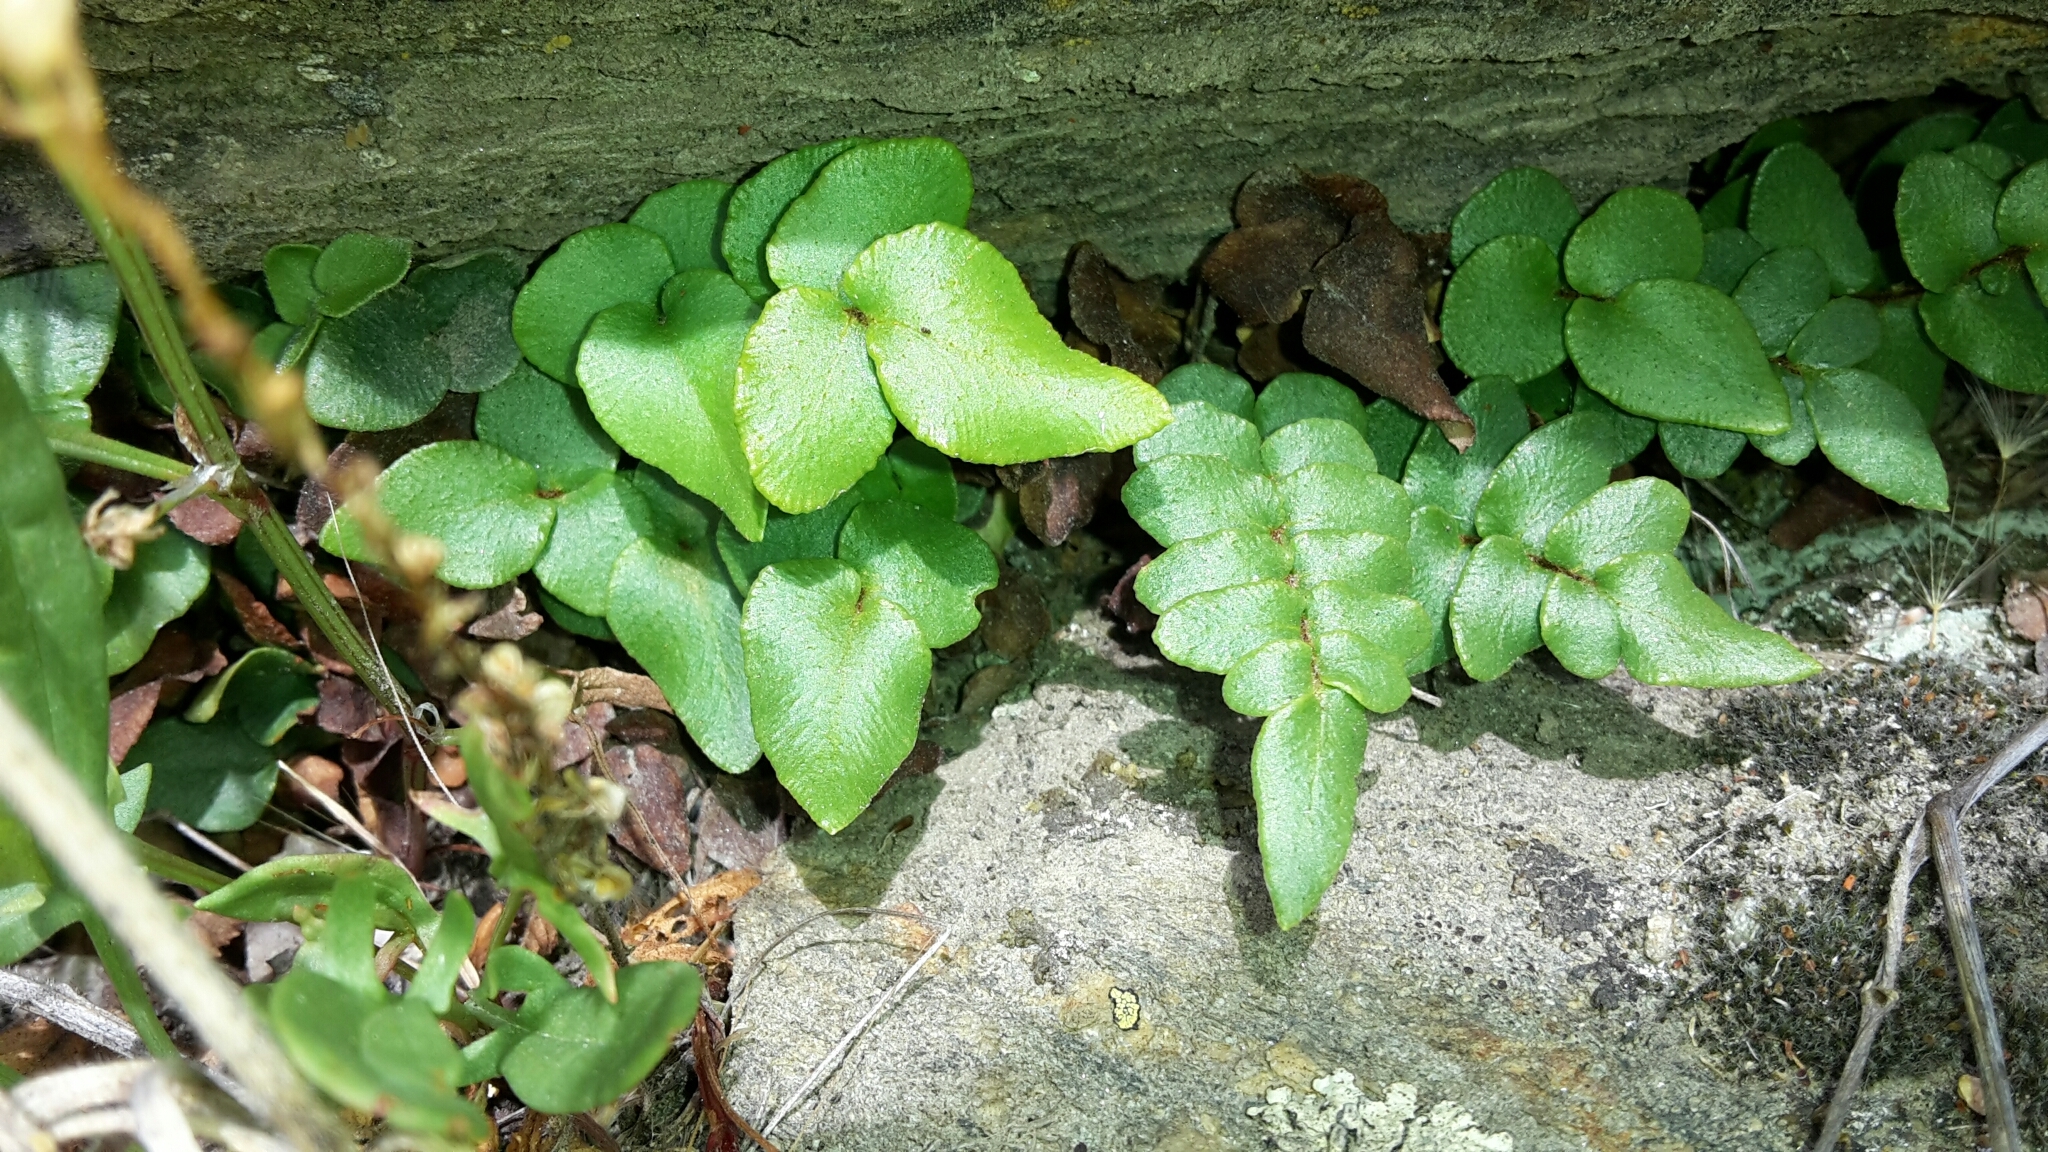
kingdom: Plantae
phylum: Tracheophyta
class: Polypodiopsida
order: Polypodiales
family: Pteridaceae
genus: Pellaea
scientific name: Pellaea calidirupium
